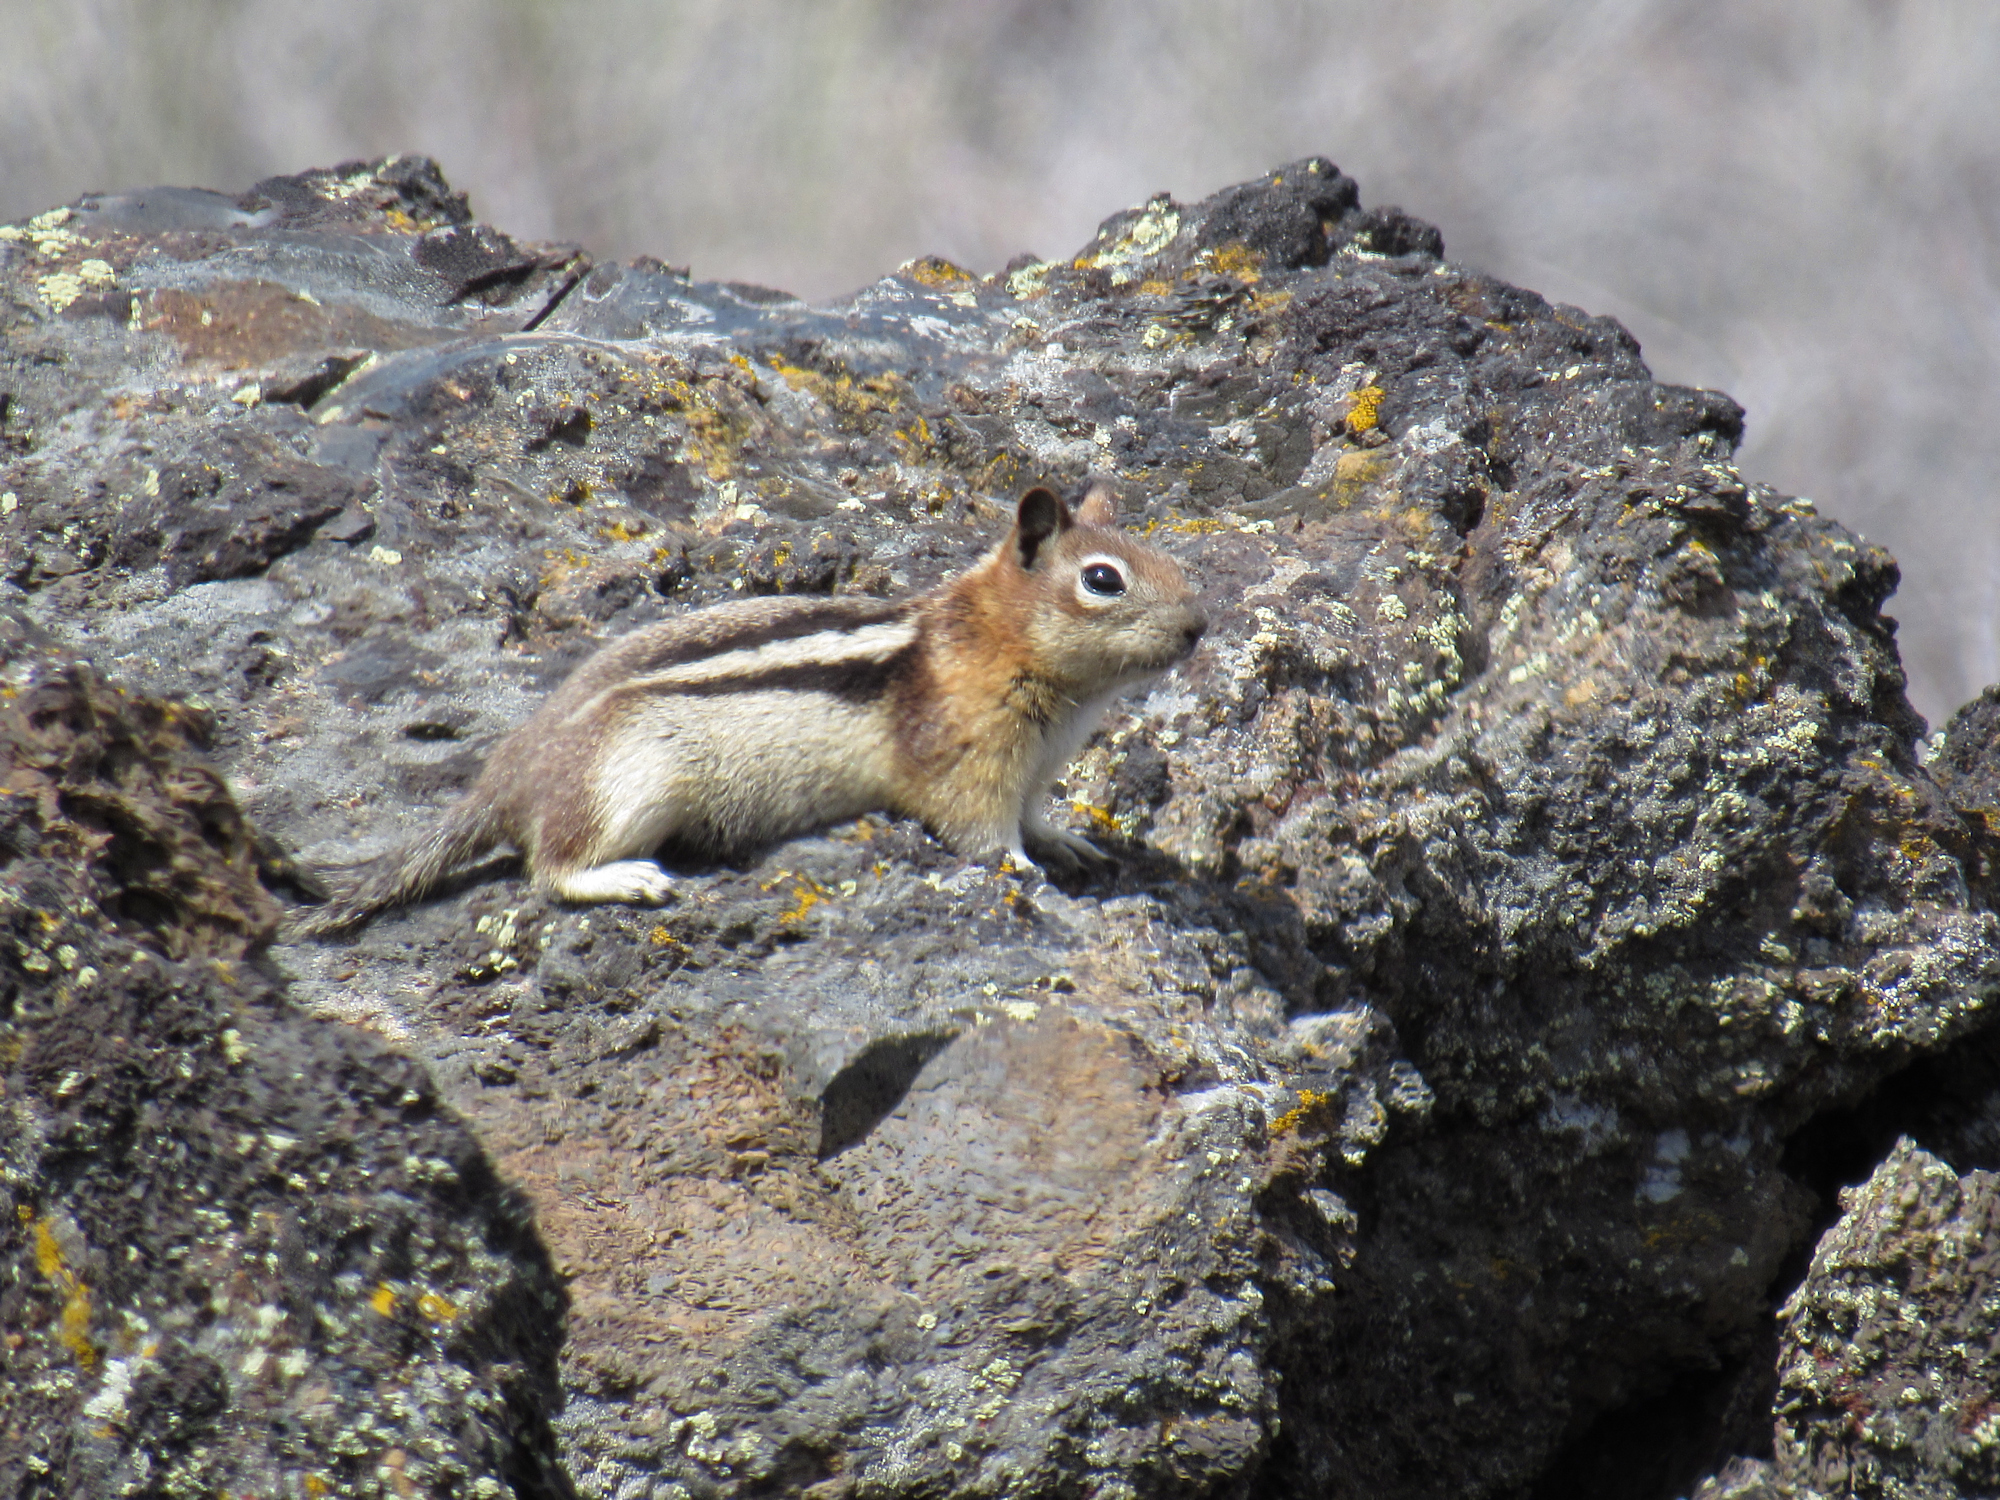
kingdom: Animalia
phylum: Chordata
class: Mammalia
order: Rodentia
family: Sciuridae
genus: Callospermophilus
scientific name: Callospermophilus lateralis
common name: Golden-mantled ground squirrel
